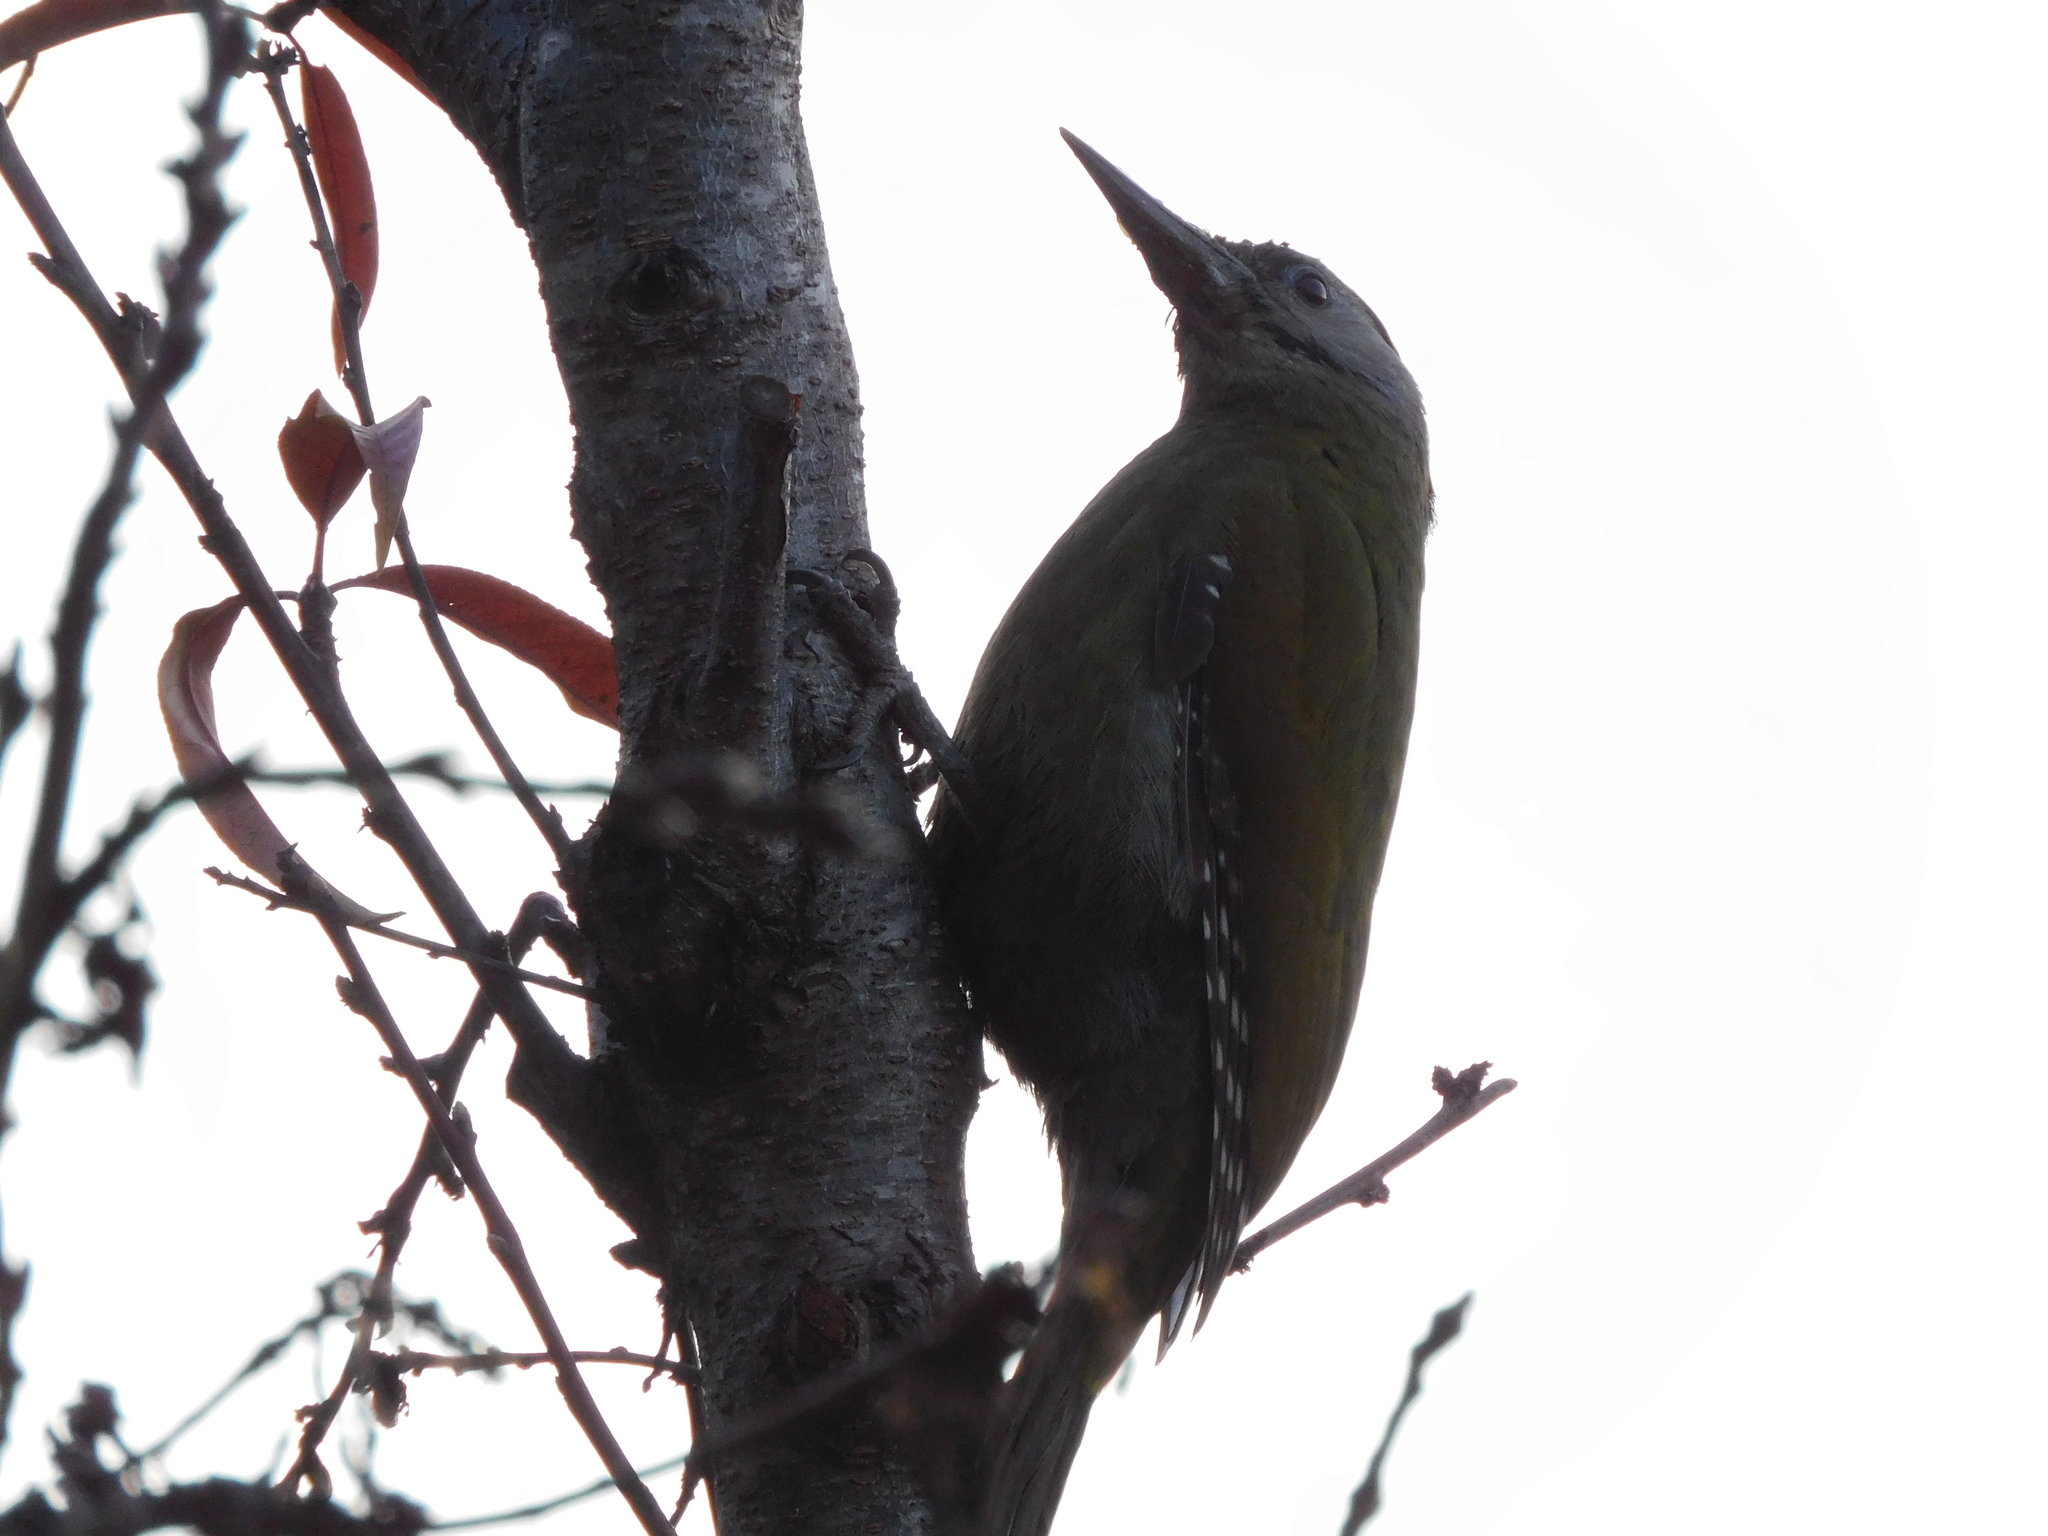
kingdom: Animalia
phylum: Chordata
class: Aves
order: Piciformes
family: Picidae
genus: Picus
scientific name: Picus canus
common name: Grey-headed woodpecker
